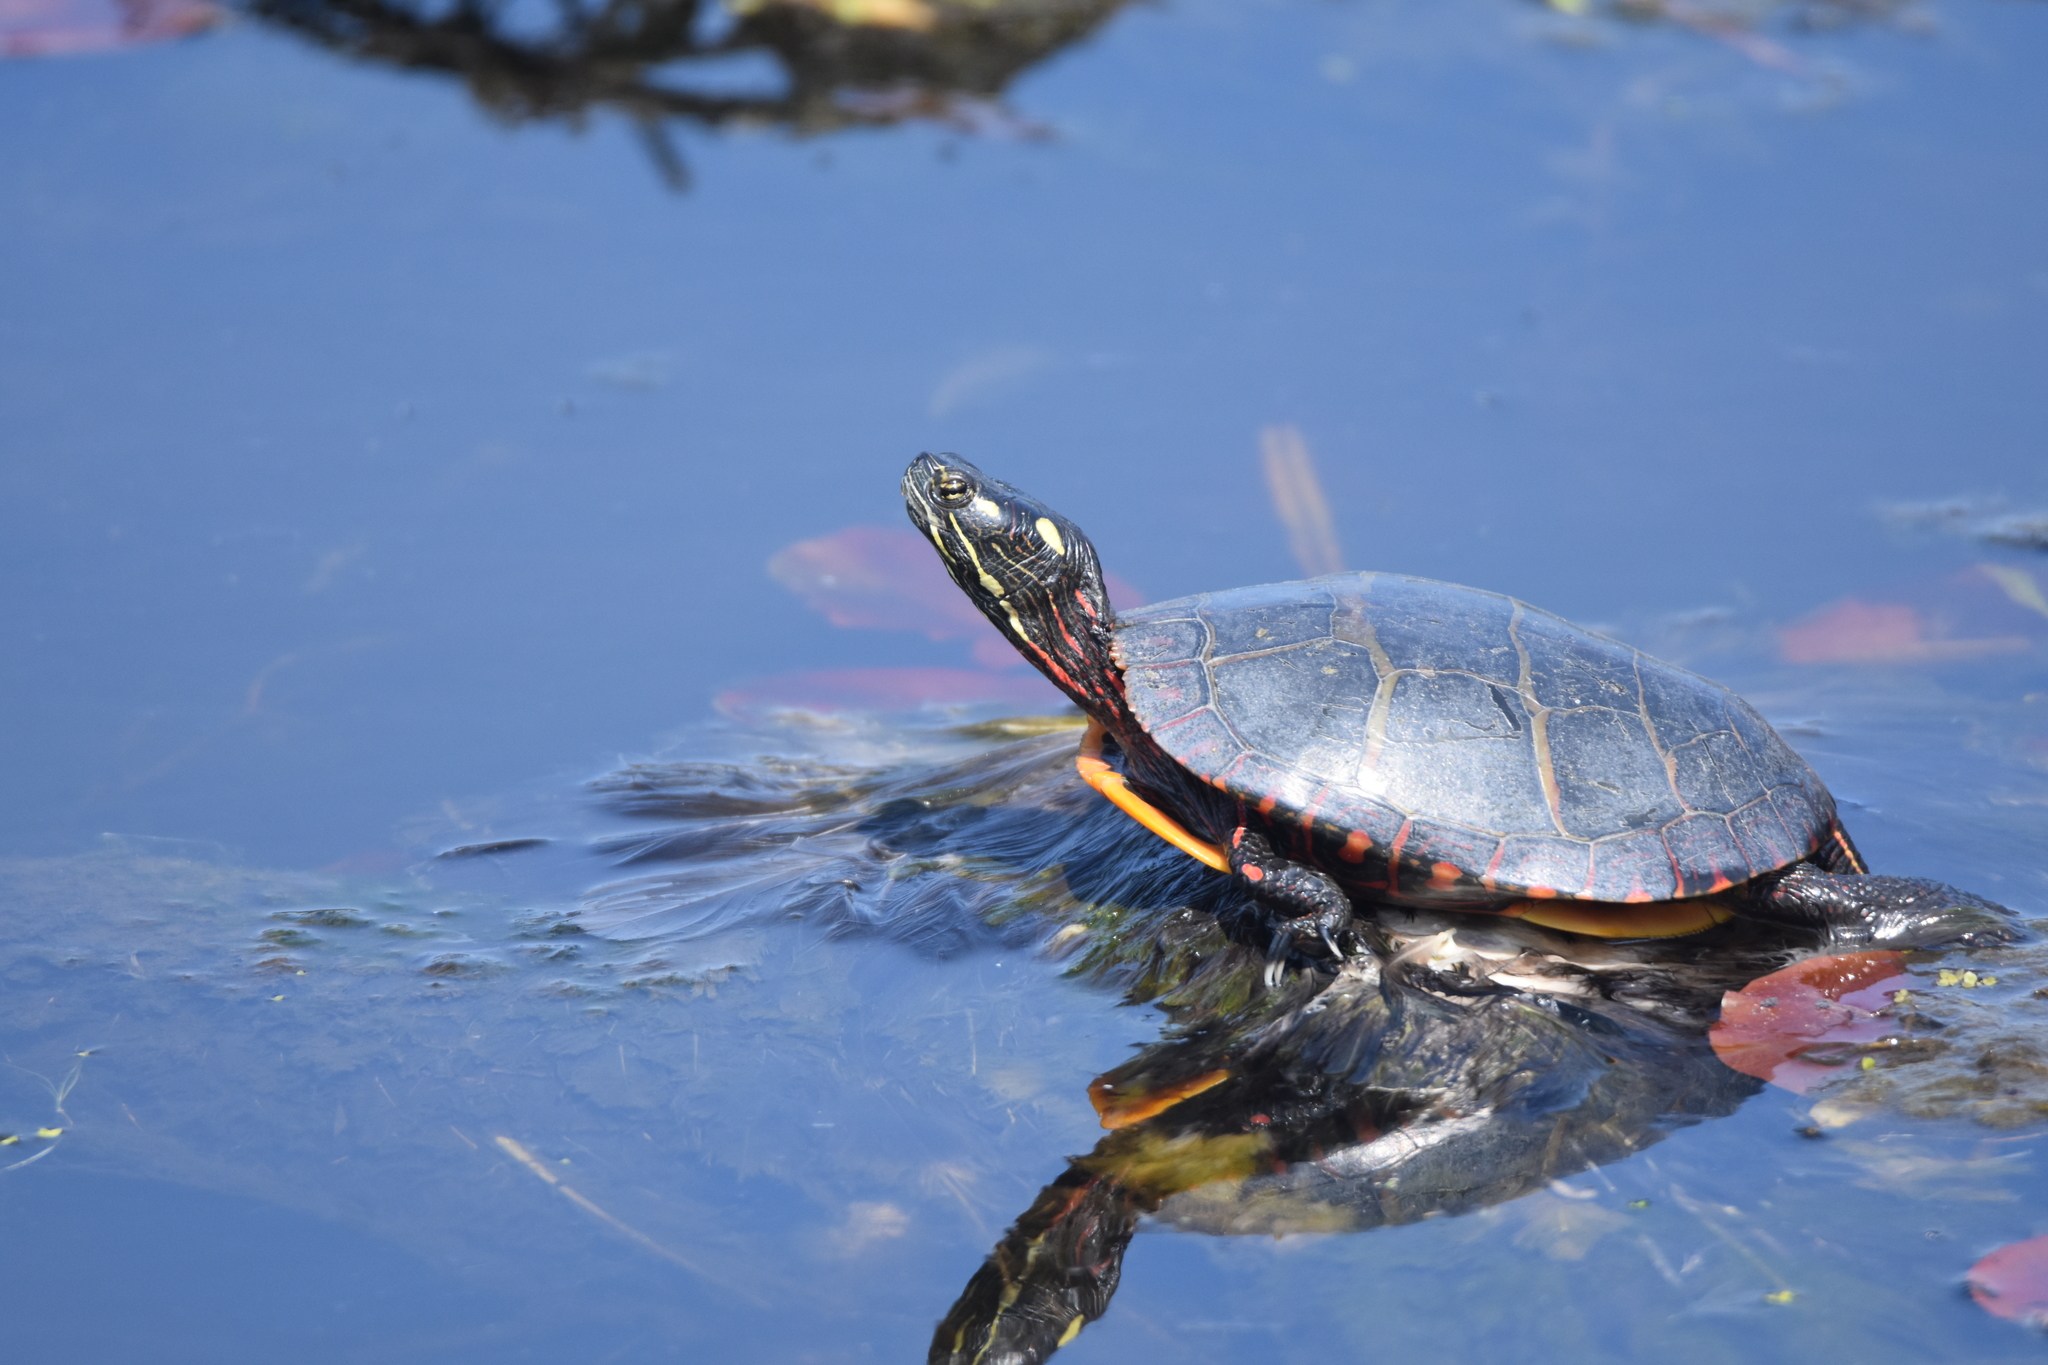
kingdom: Animalia
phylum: Chordata
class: Testudines
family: Emydidae
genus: Chrysemys
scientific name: Chrysemys picta
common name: Painted turtle
